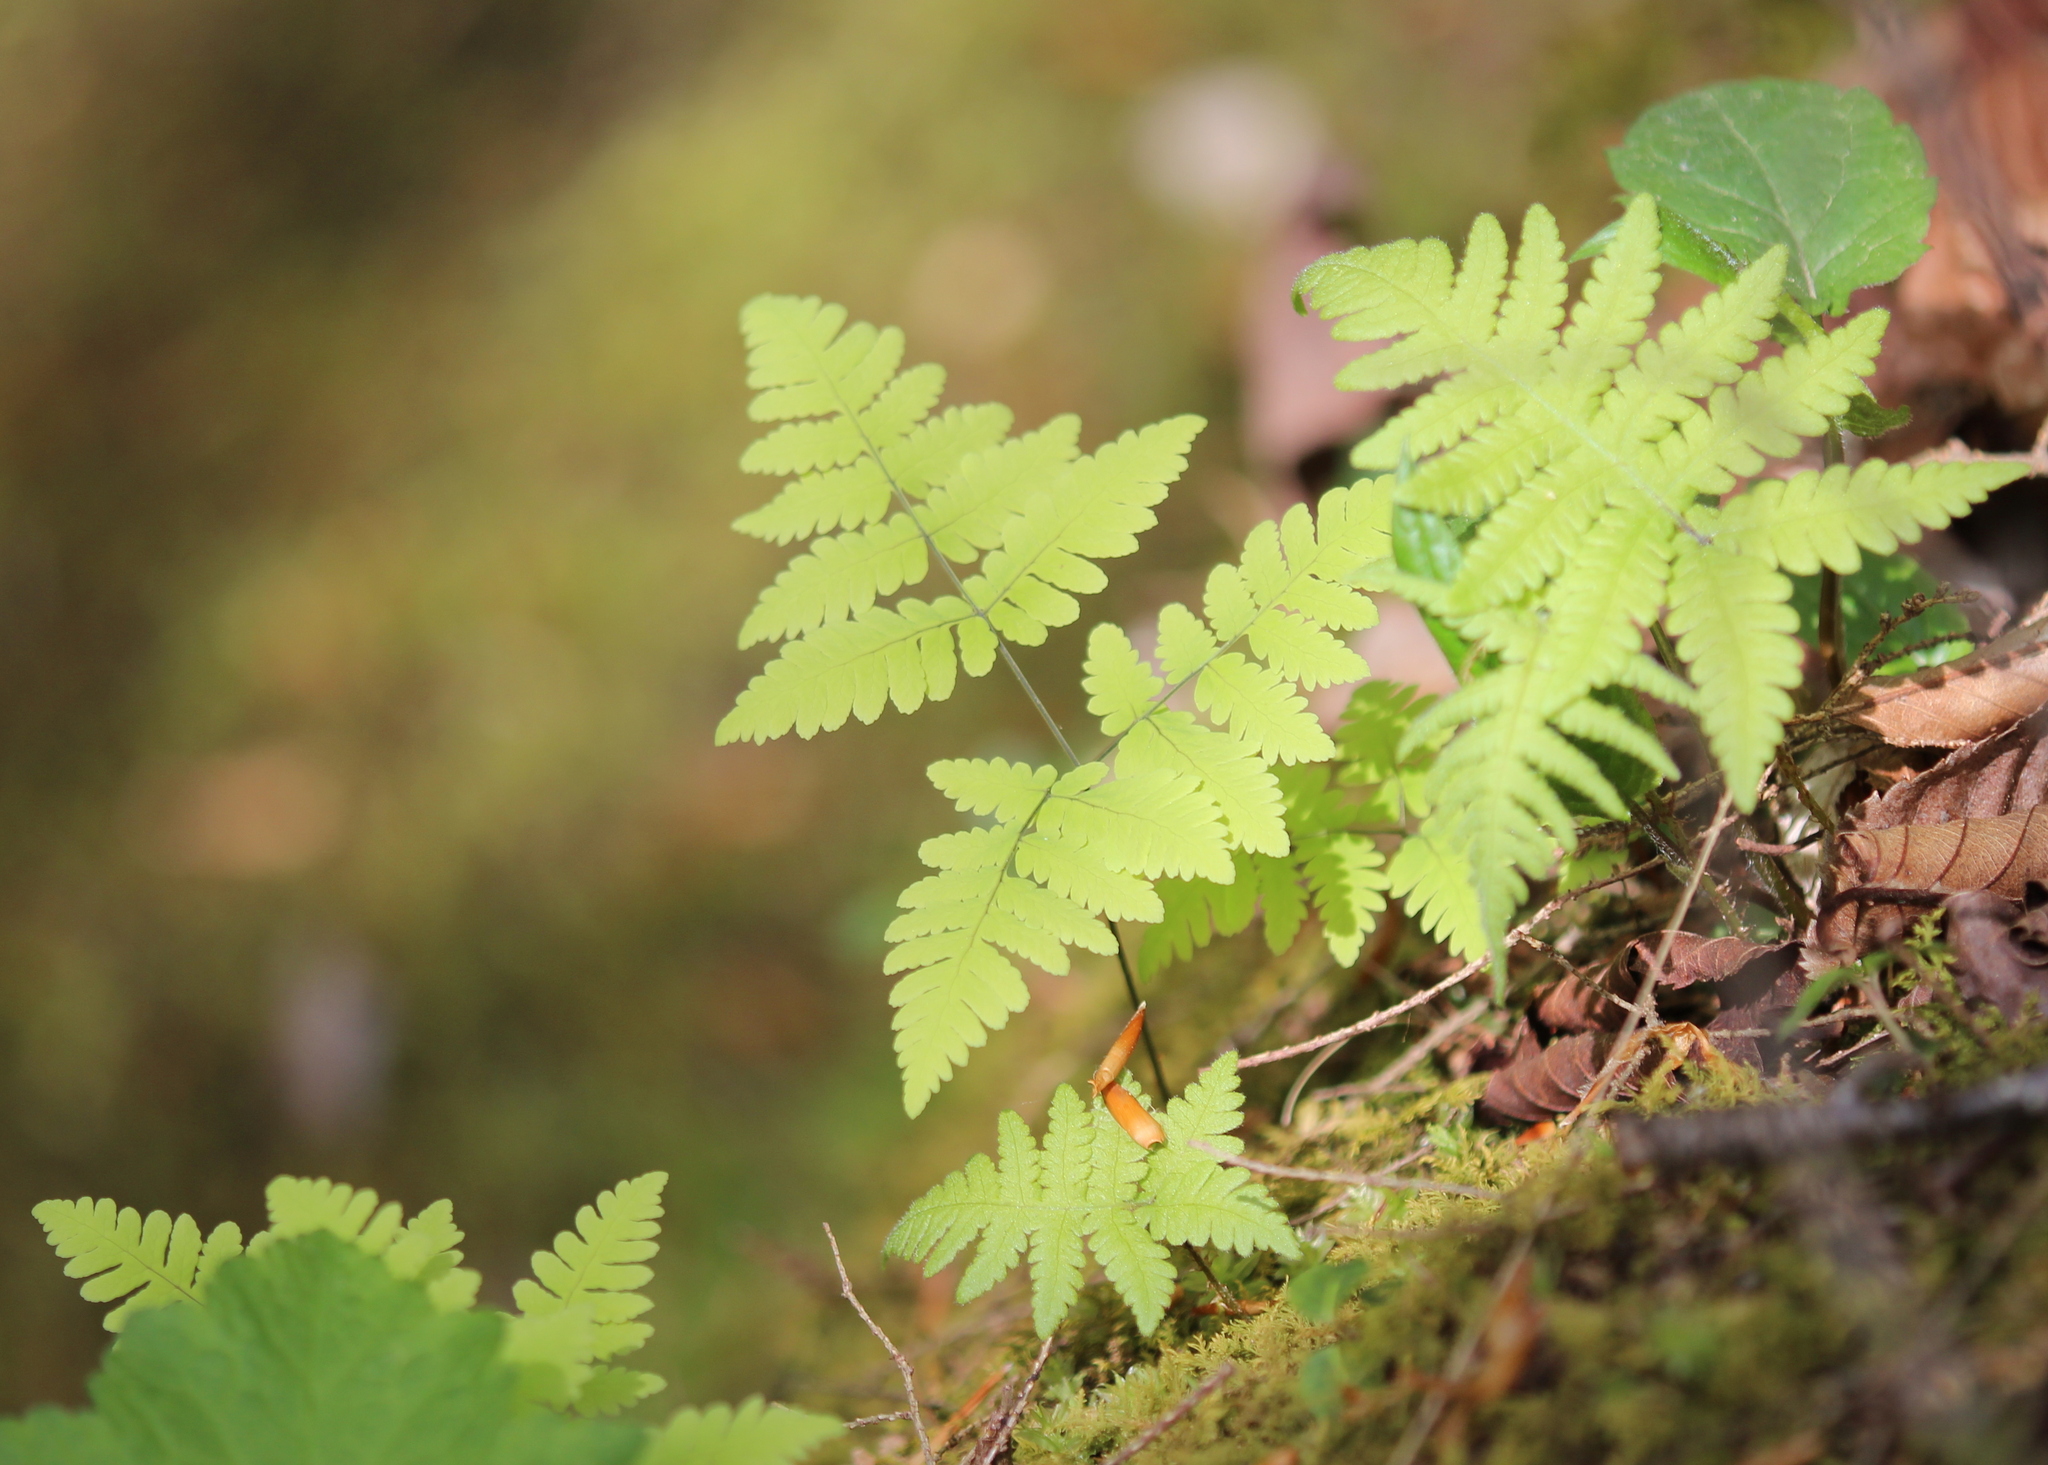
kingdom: Plantae
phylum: Tracheophyta
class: Polypodiopsida
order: Polypodiales
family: Cystopteridaceae
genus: Gymnocarpium
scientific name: Gymnocarpium dryopteris
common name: Oak fern
